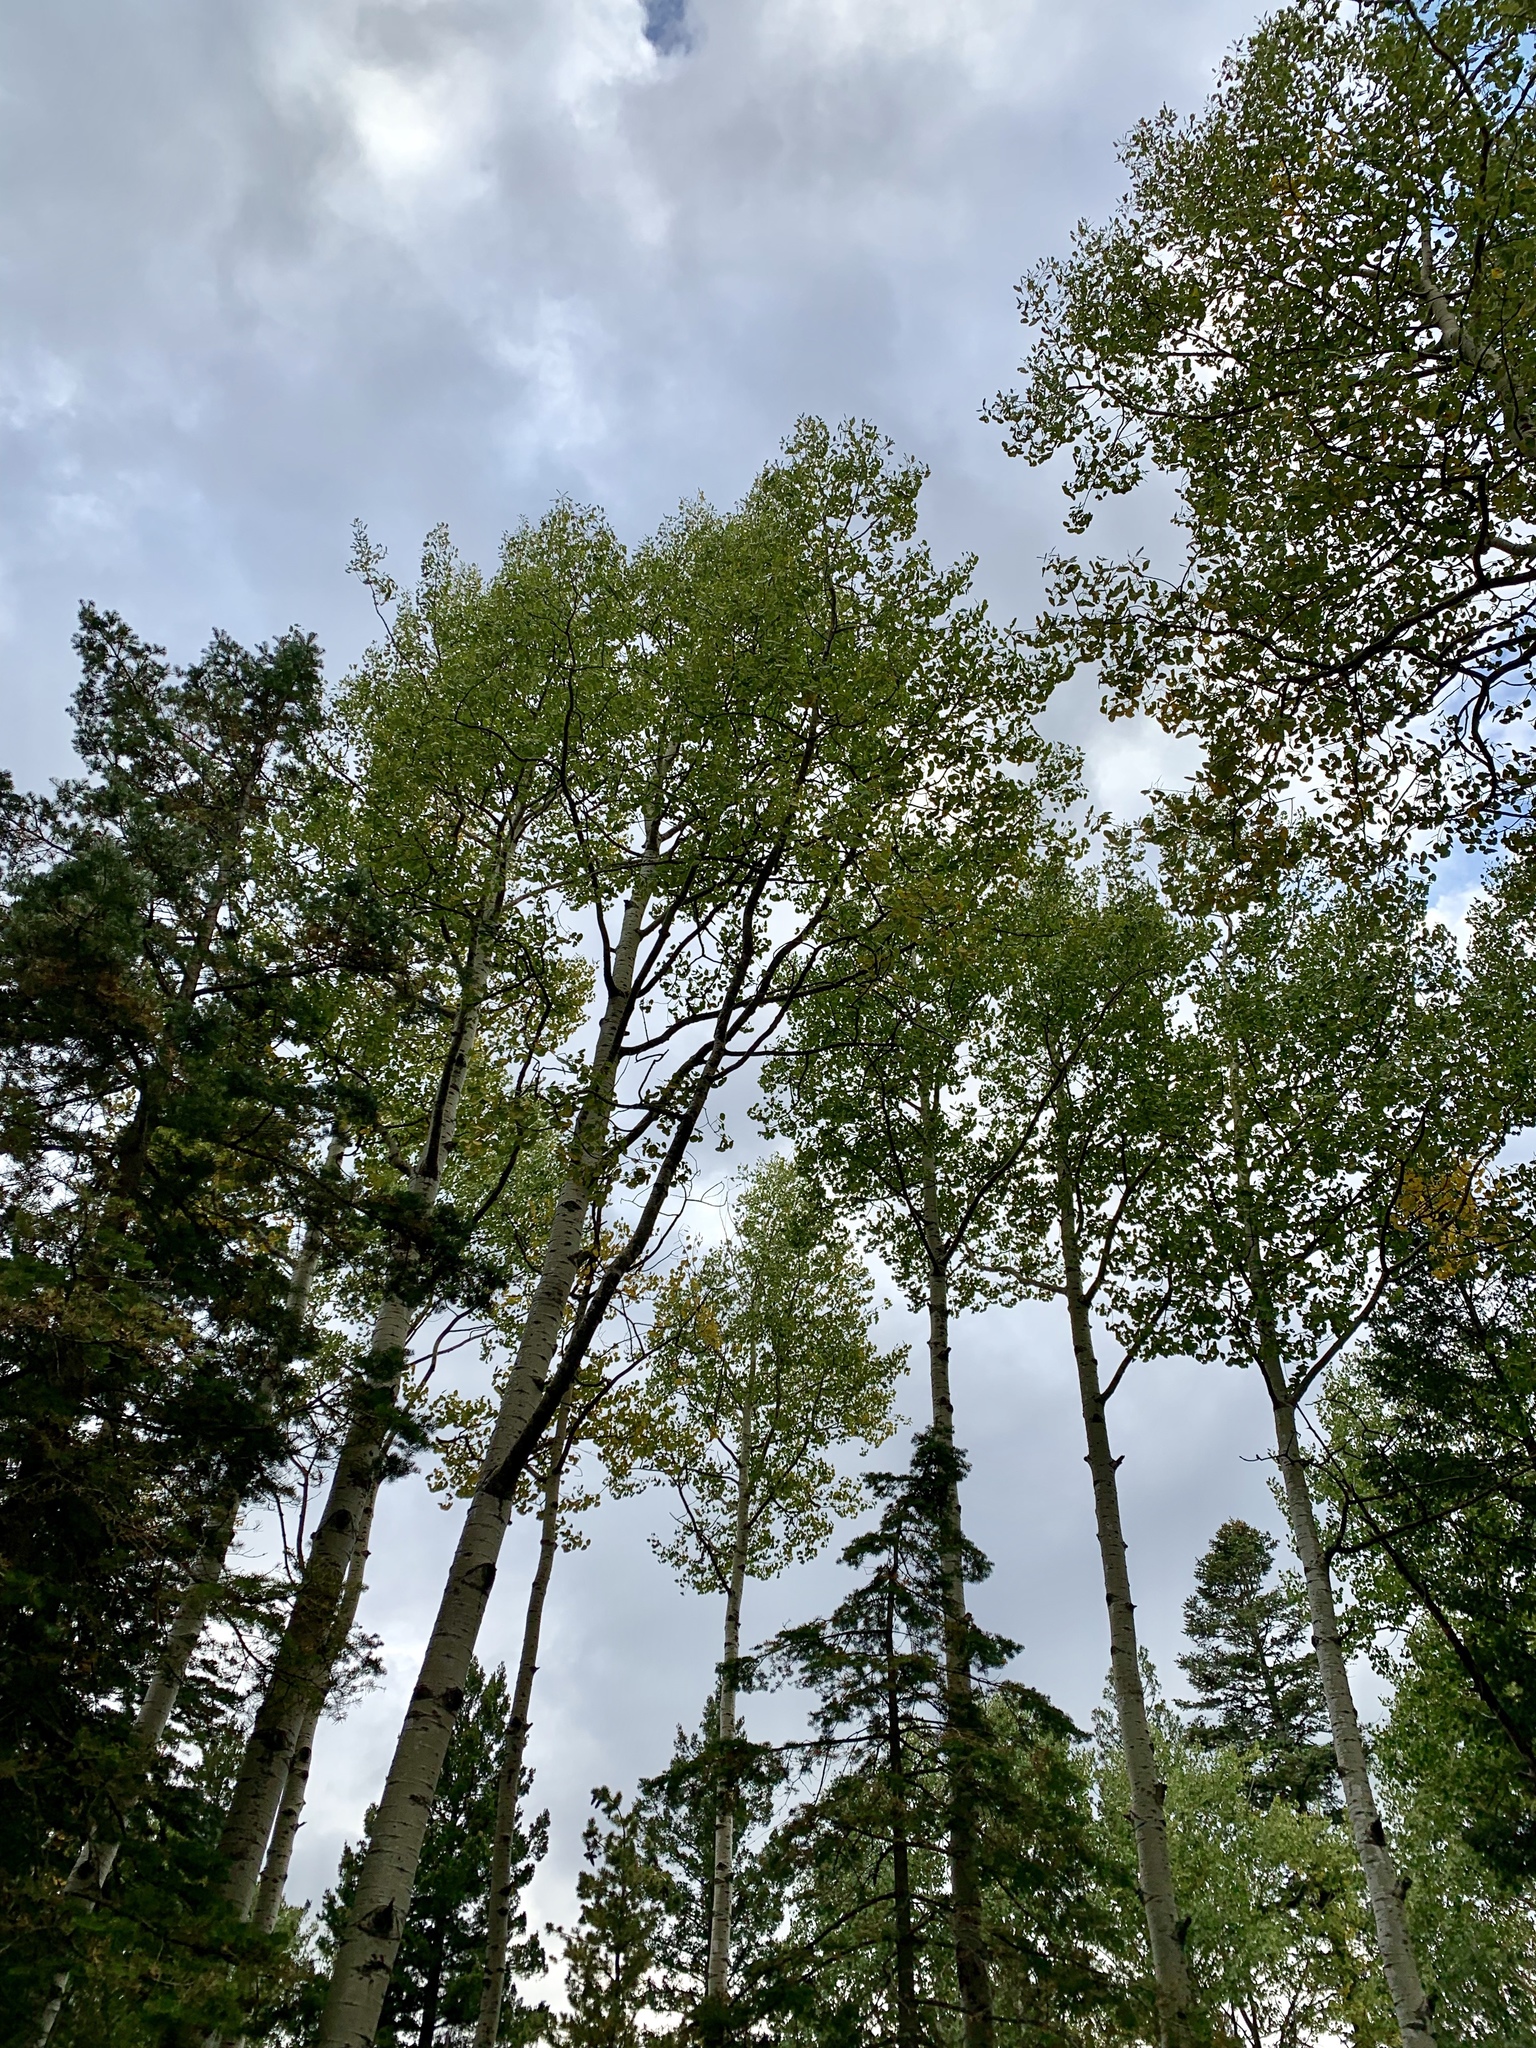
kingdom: Plantae
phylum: Tracheophyta
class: Magnoliopsida
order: Malpighiales
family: Salicaceae
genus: Populus
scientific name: Populus tremuloides
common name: Quaking aspen
